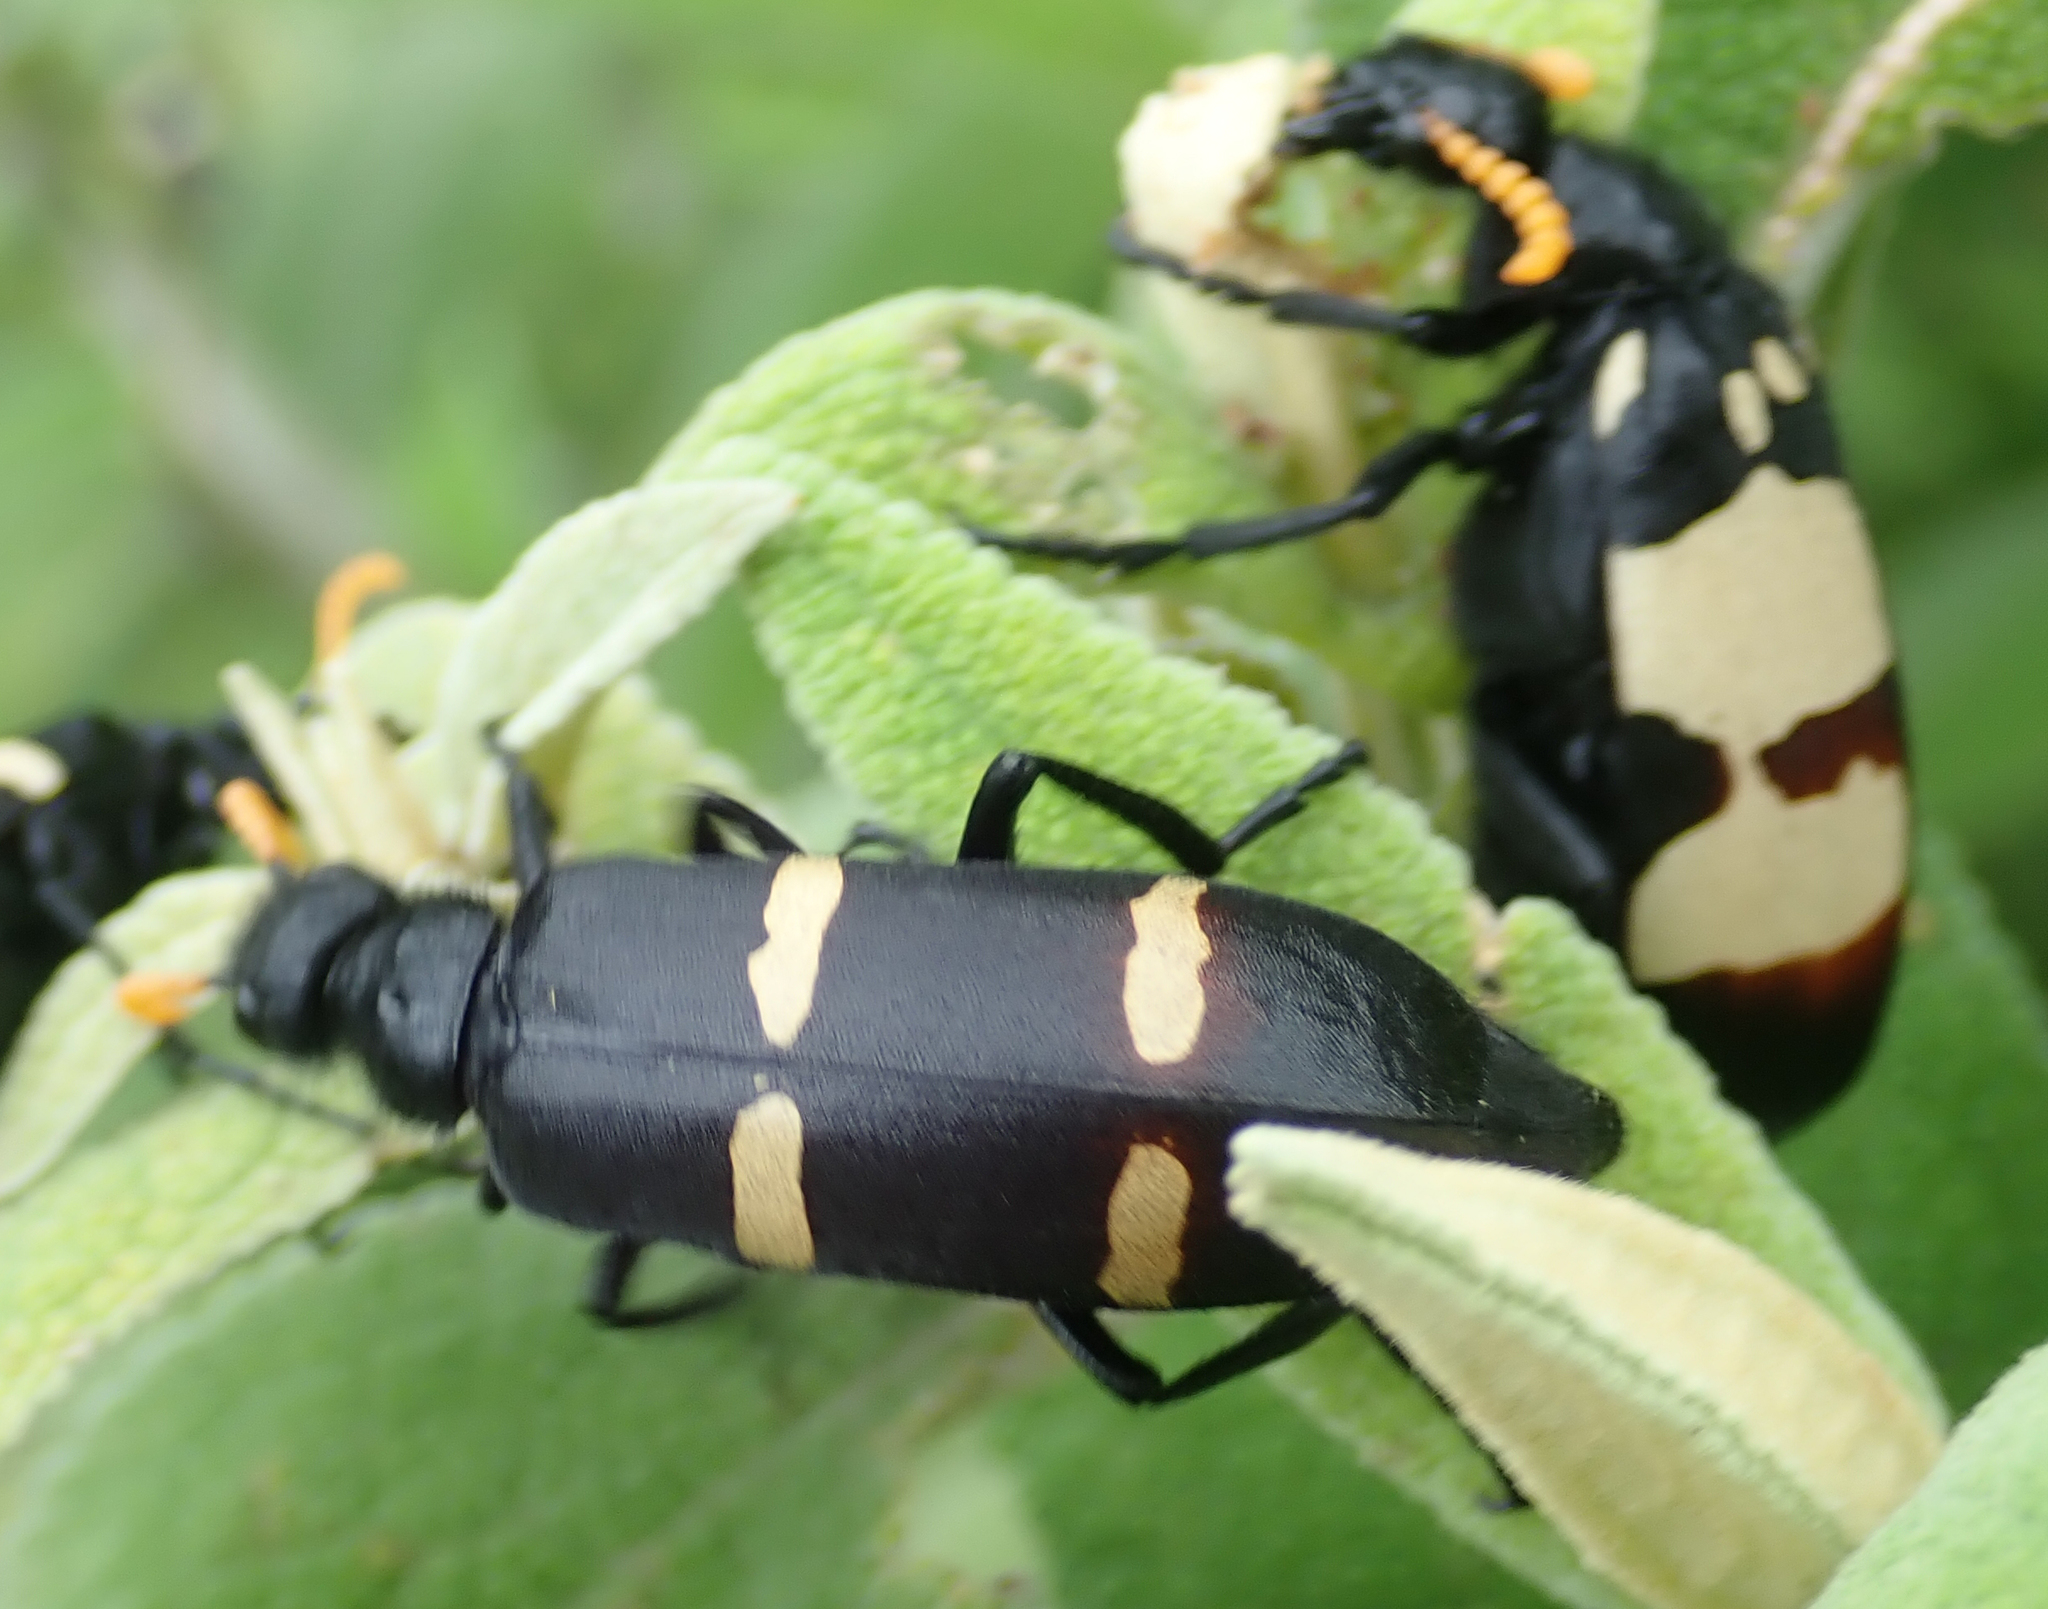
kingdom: Animalia
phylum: Arthropoda
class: Insecta
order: Coleoptera
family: Meloidae
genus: Hycleus
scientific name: Hycleus
